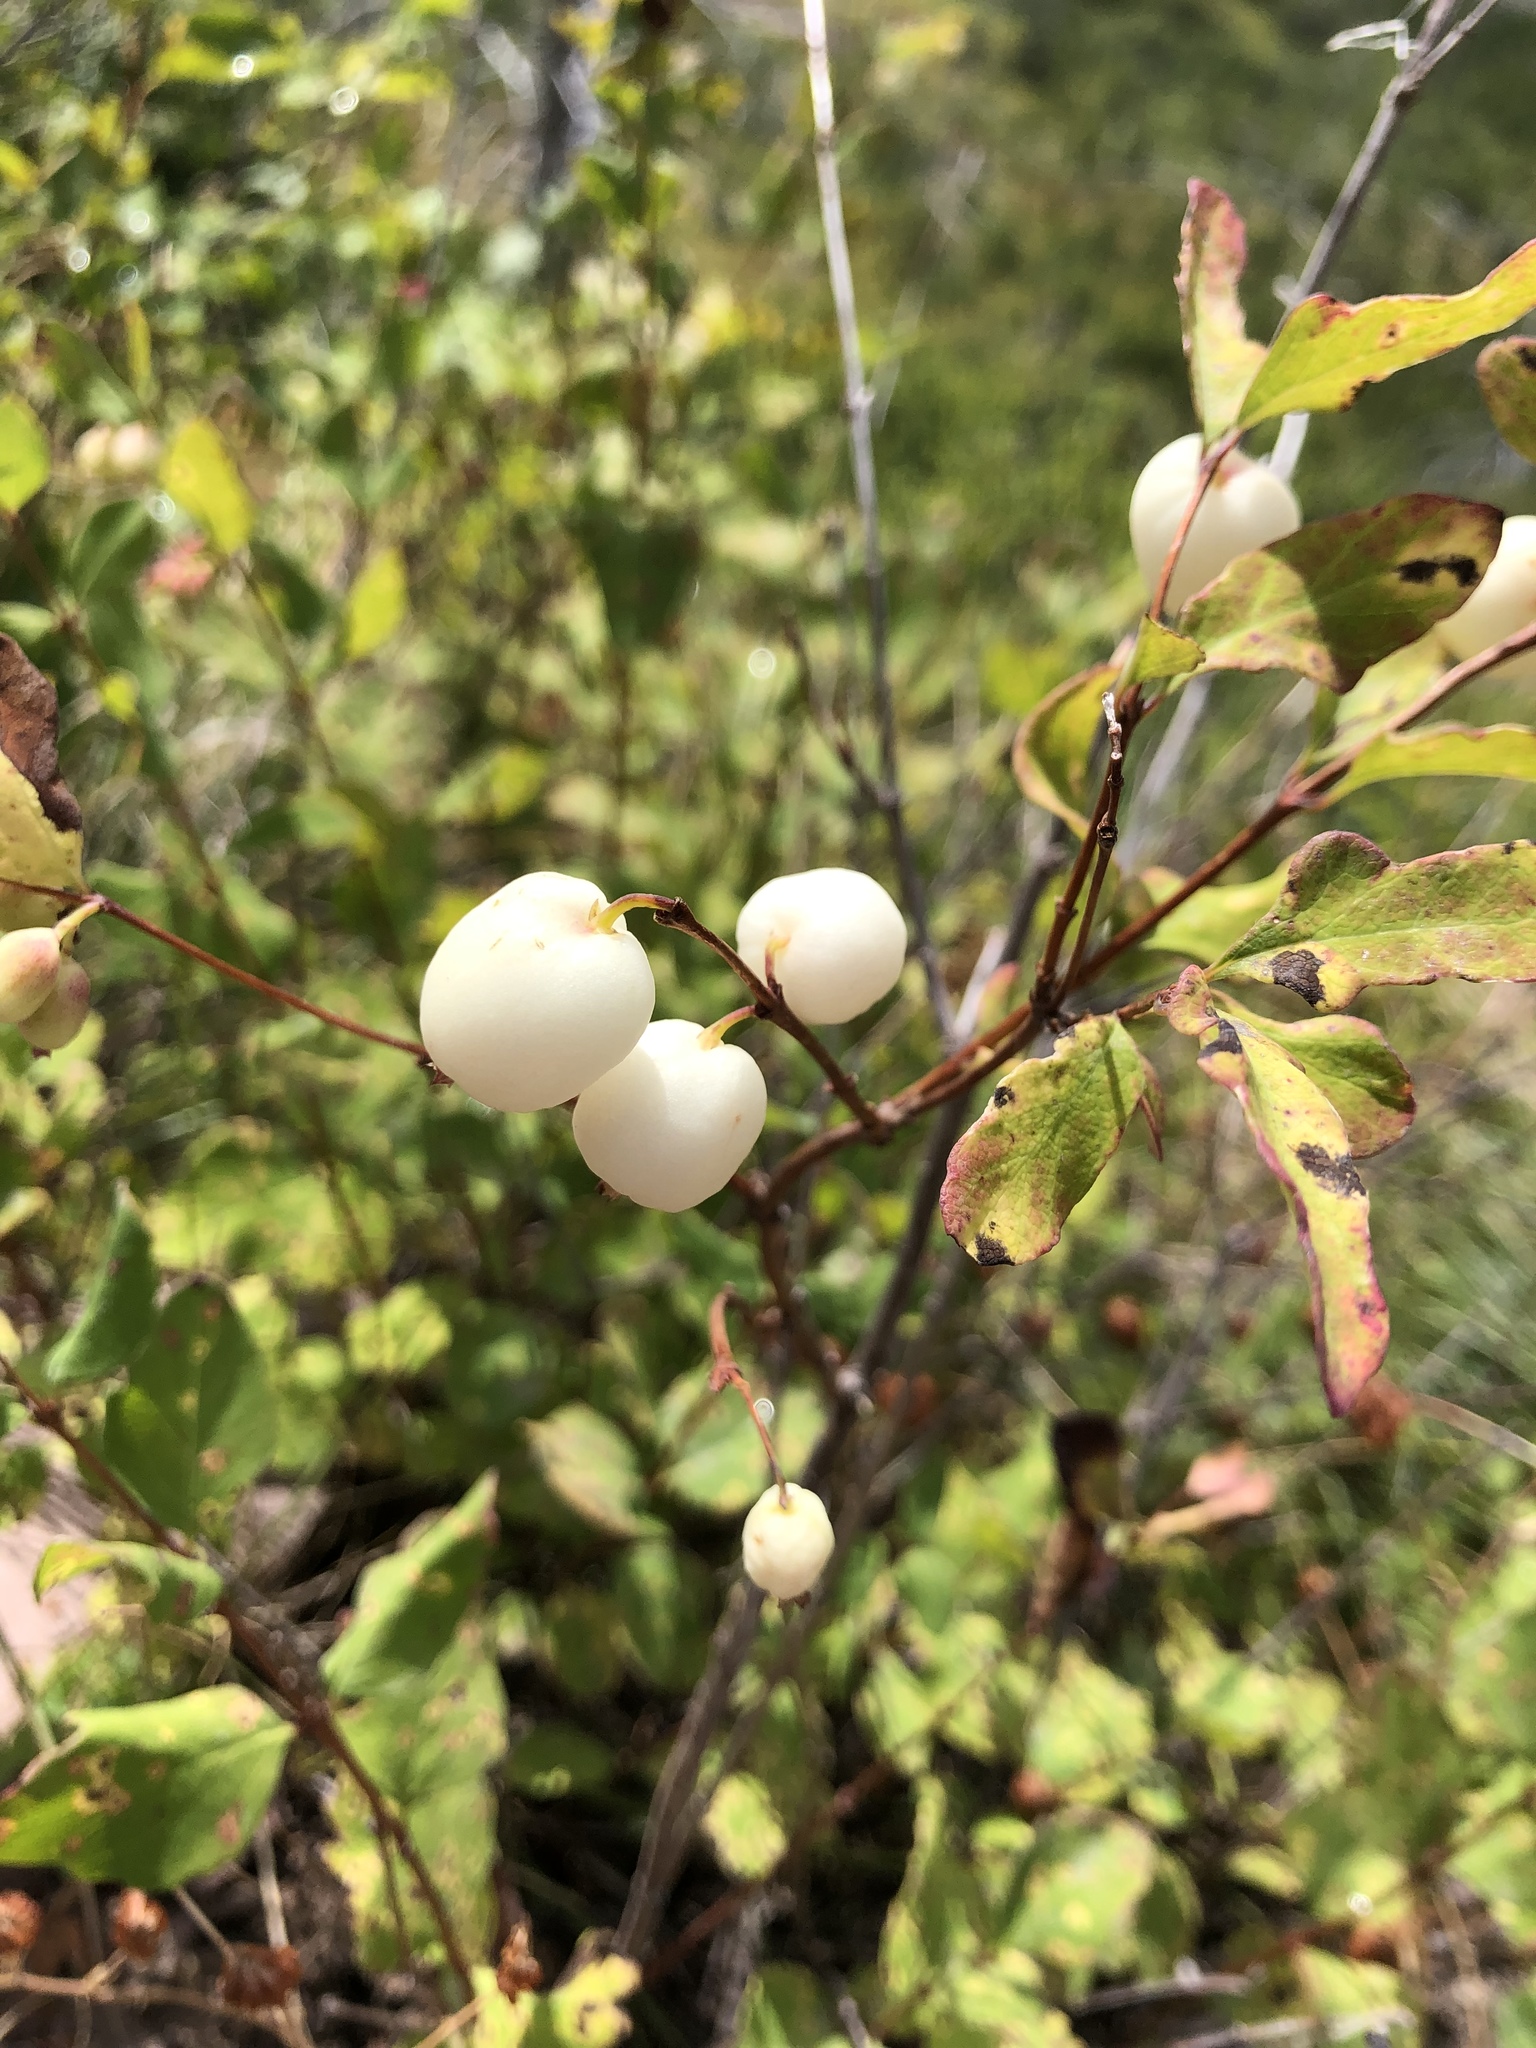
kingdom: Plantae
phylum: Tracheophyta
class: Magnoliopsida
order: Dipsacales
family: Caprifoliaceae
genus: Symphoricarpos
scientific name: Symphoricarpos albus
